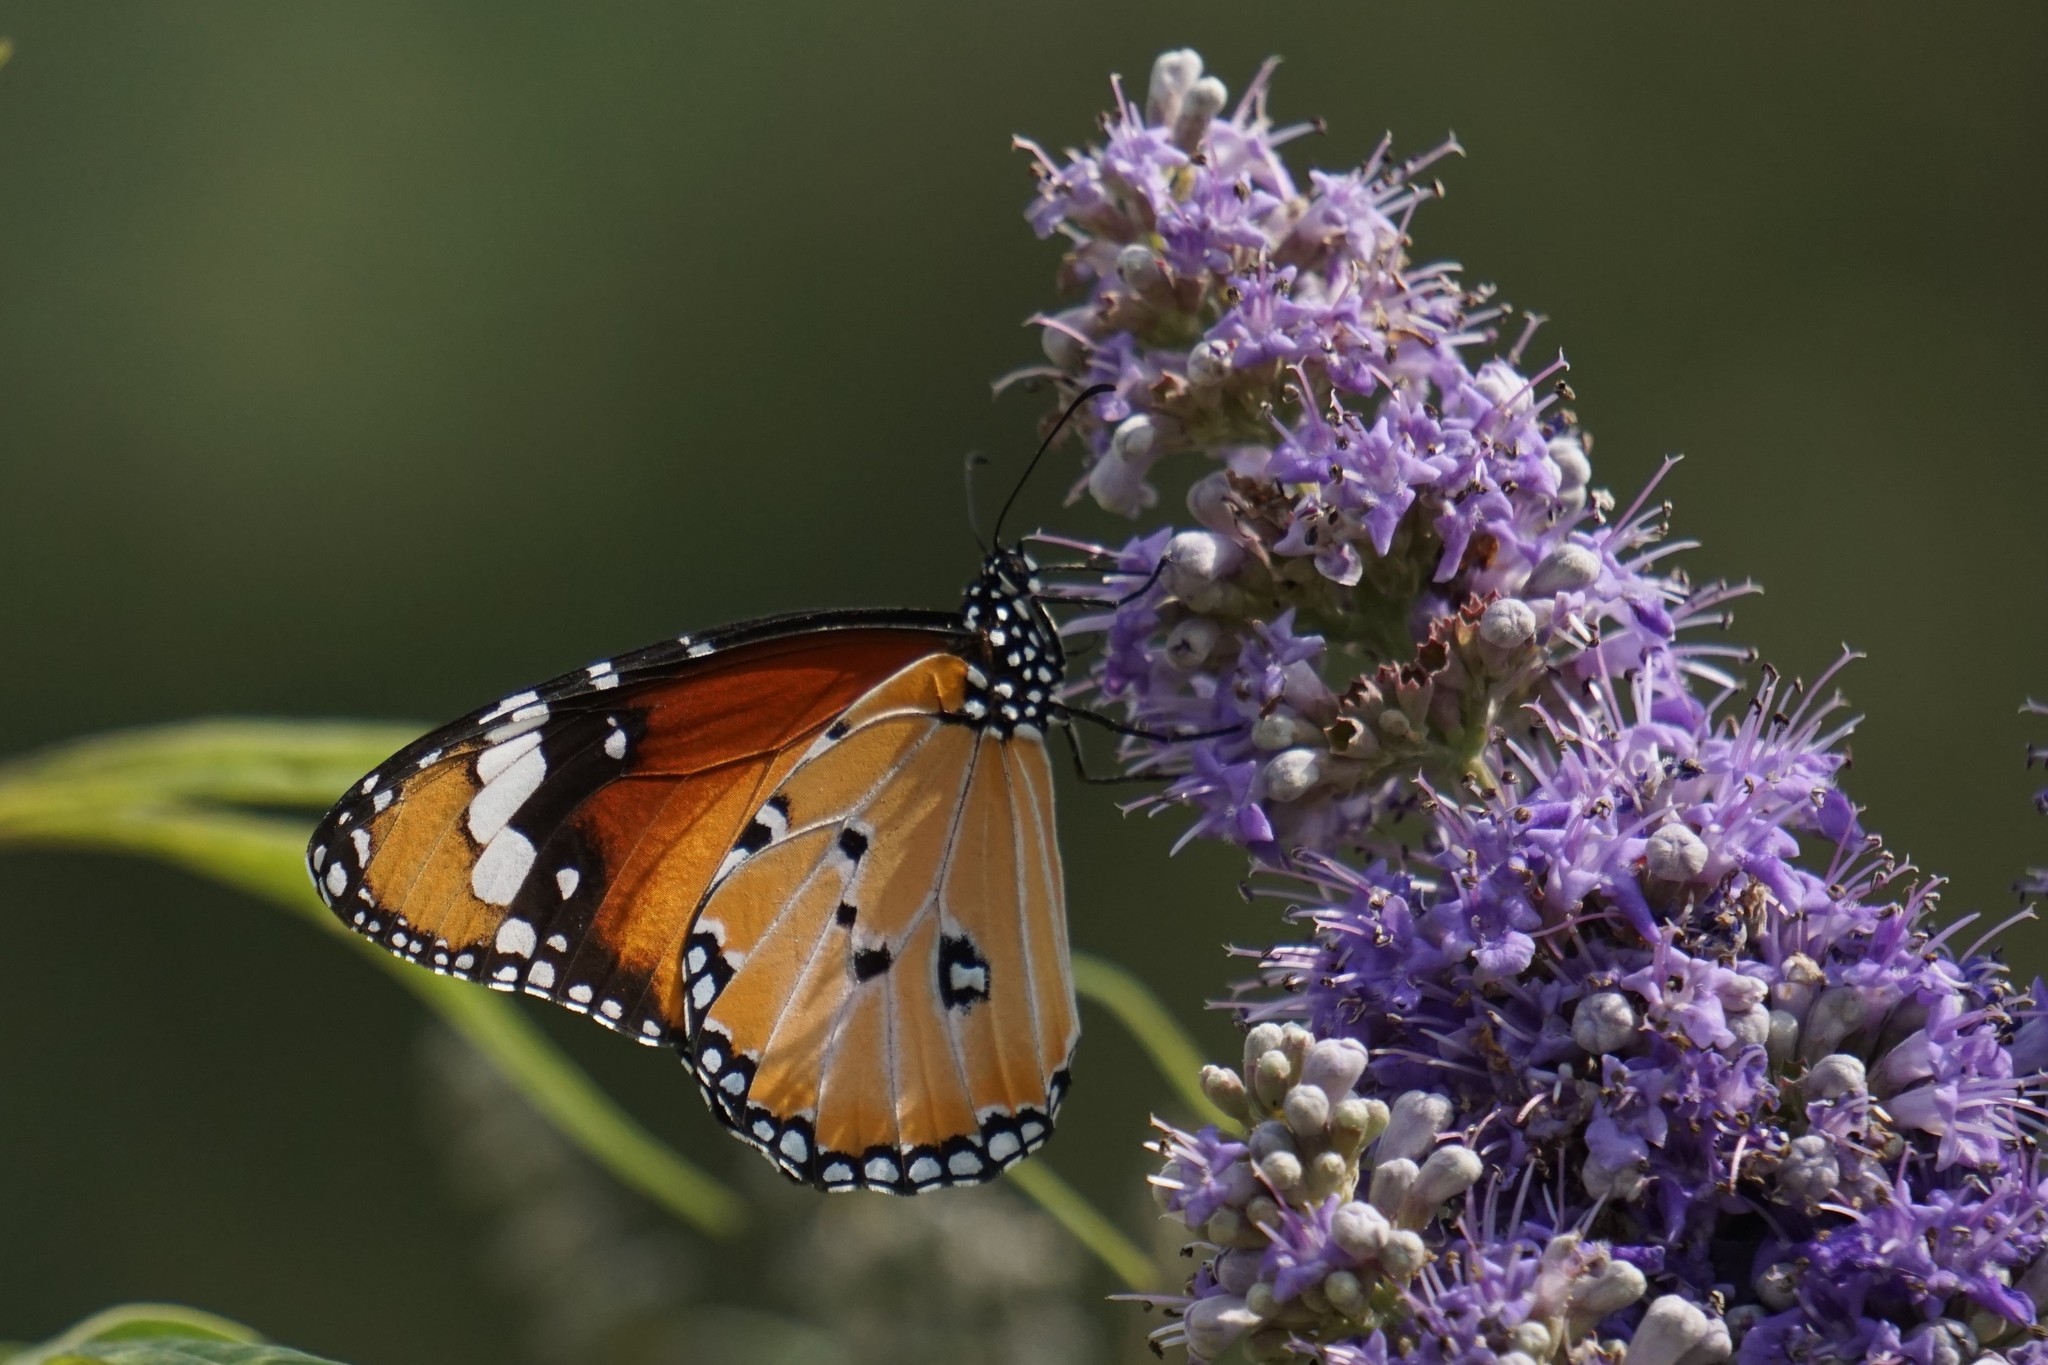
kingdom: Animalia
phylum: Arthropoda
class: Insecta
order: Lepidoptera
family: Nymphalidae
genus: Danaus
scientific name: Danaus chrysippus
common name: Plain tiger
